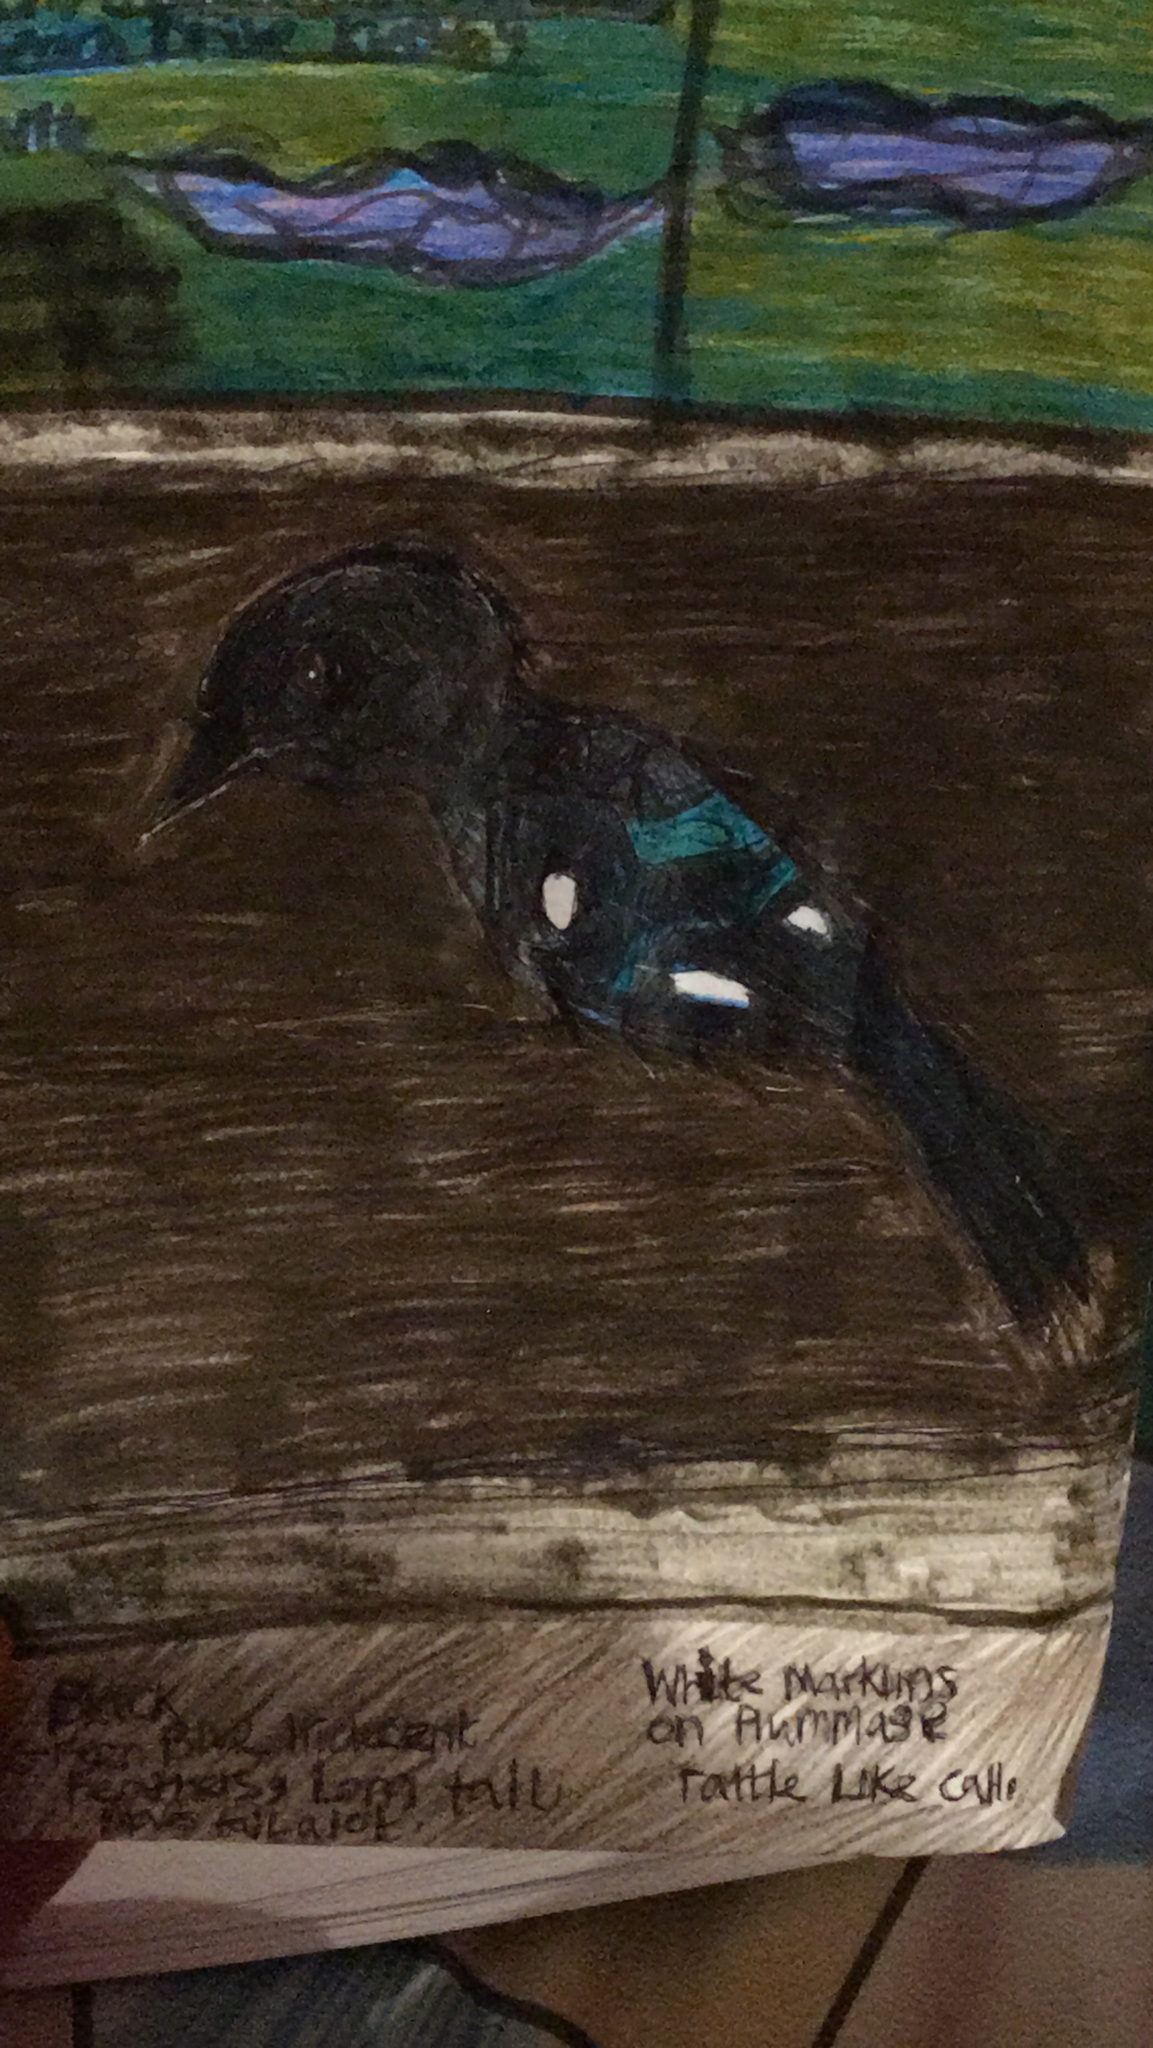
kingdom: Animalia
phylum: Chordata
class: Aves
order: Passeriformes
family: Corvidae
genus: Pica
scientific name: Pica pica
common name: Eurasian magpie
